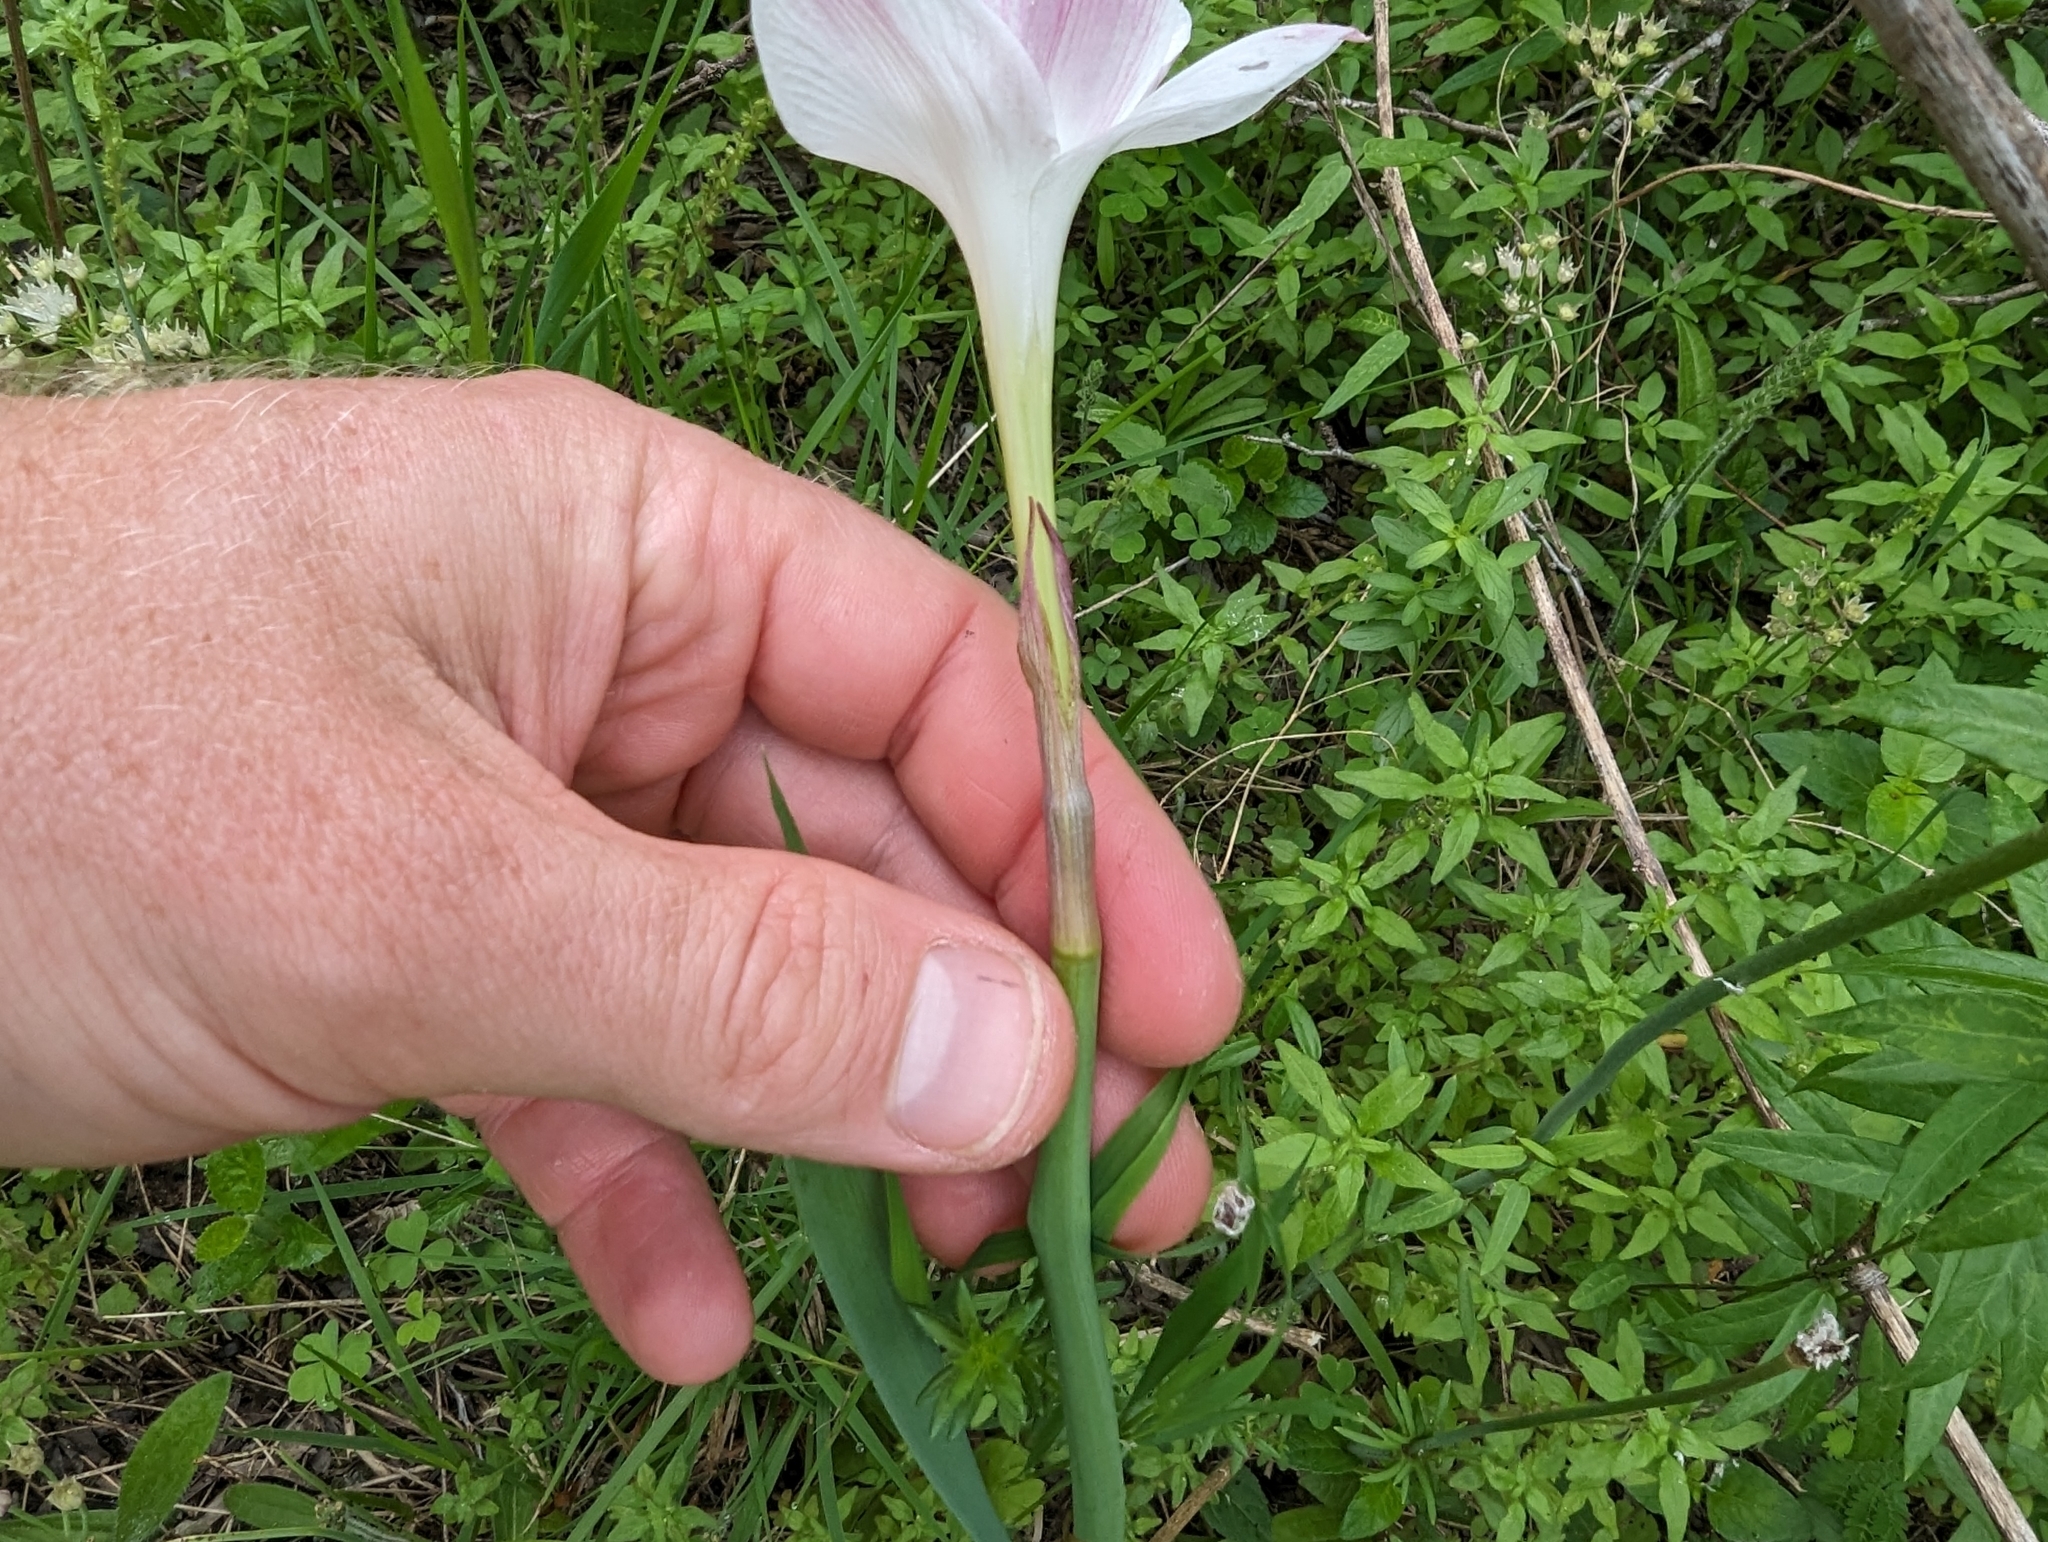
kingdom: Plantae
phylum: Tracheophyta
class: Liliopsida
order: Asparagales
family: Amaryllidaceae
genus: Zephyranthes
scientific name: Zephyranthes drummondii
